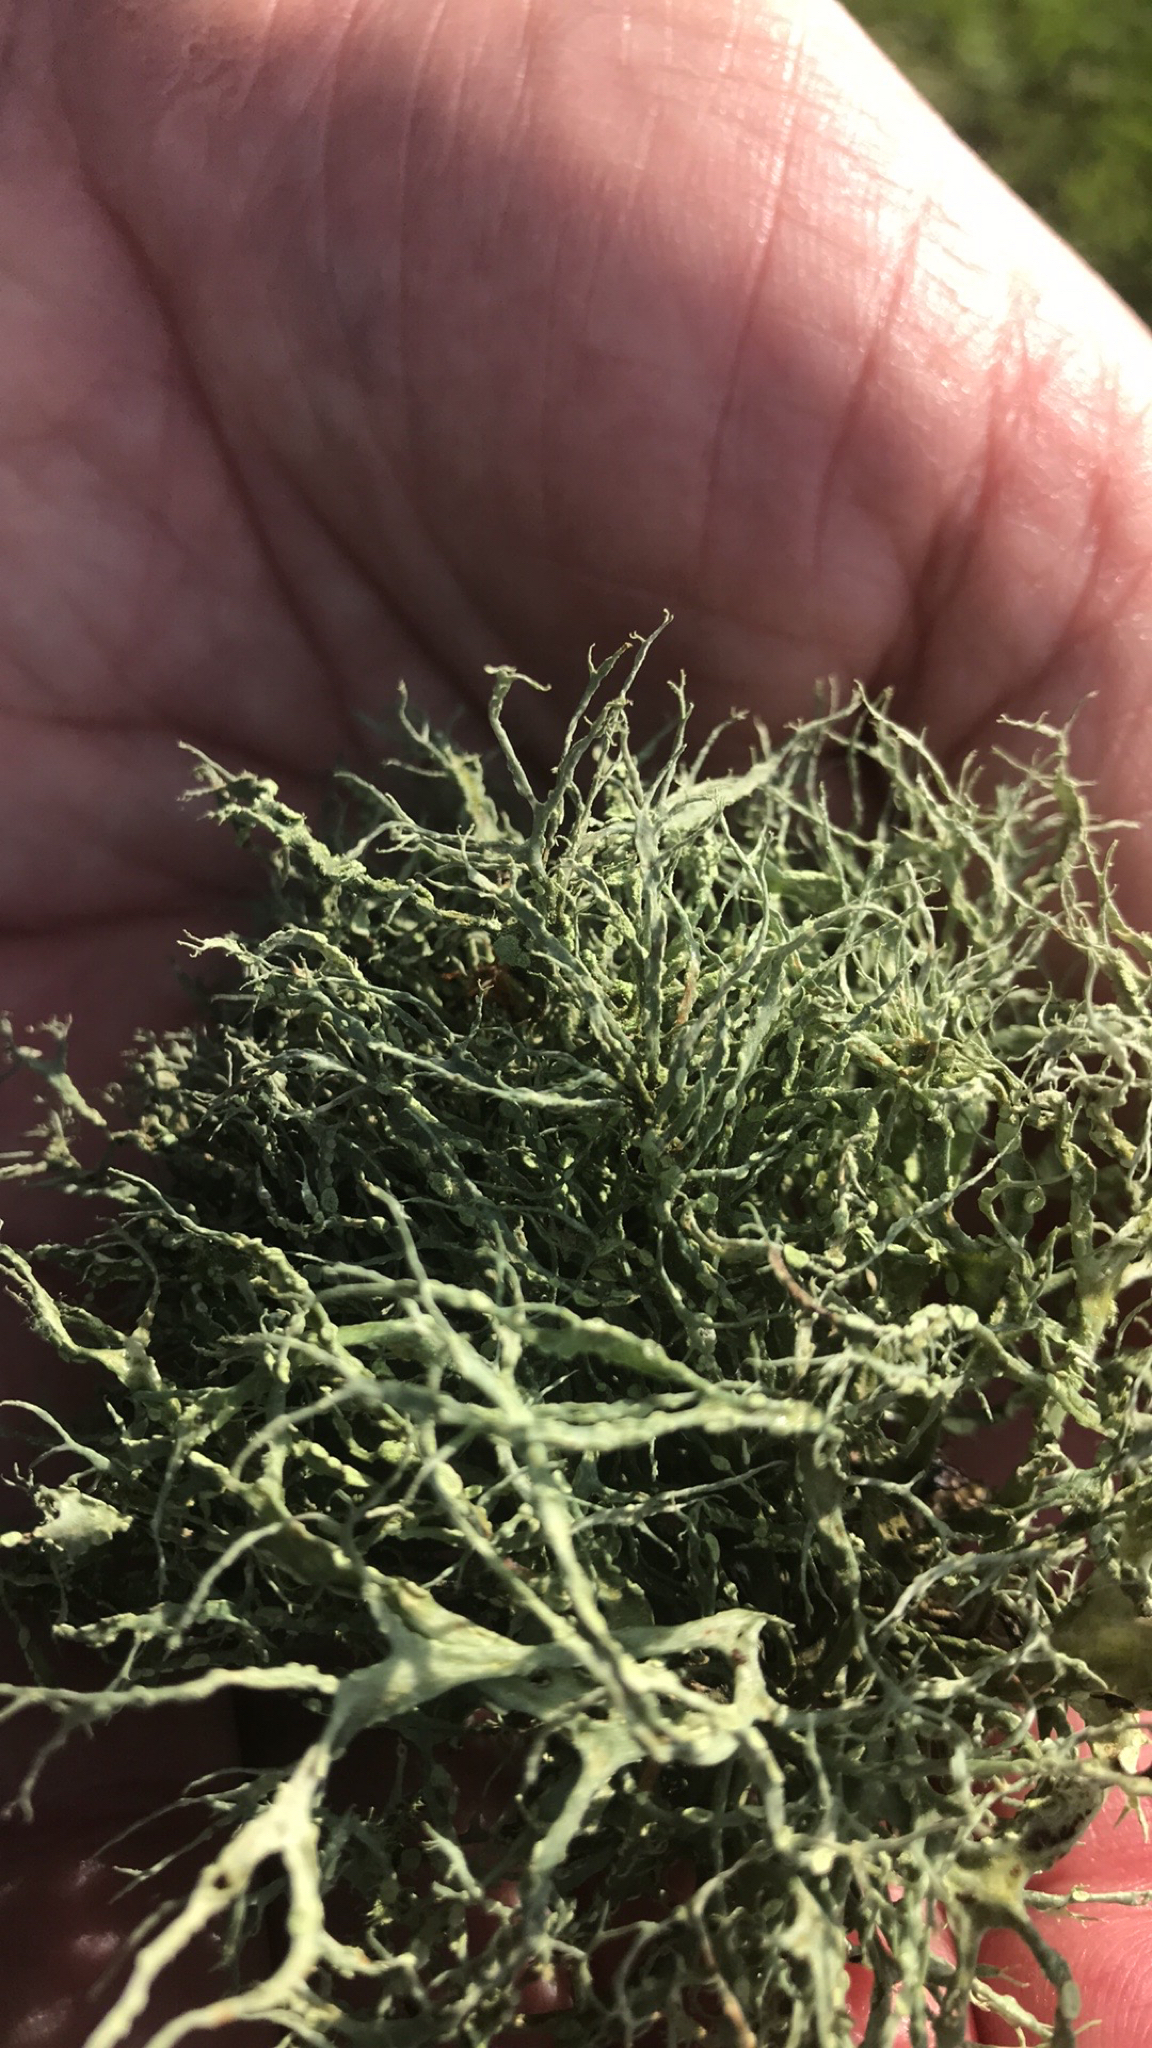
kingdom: Fungi
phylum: Ascomycota
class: Lecanoromycetes
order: Lecanorales
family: Ramalinaceae
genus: Ramalina
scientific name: Ramalina farinacea
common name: Farinose cartilage lichen
